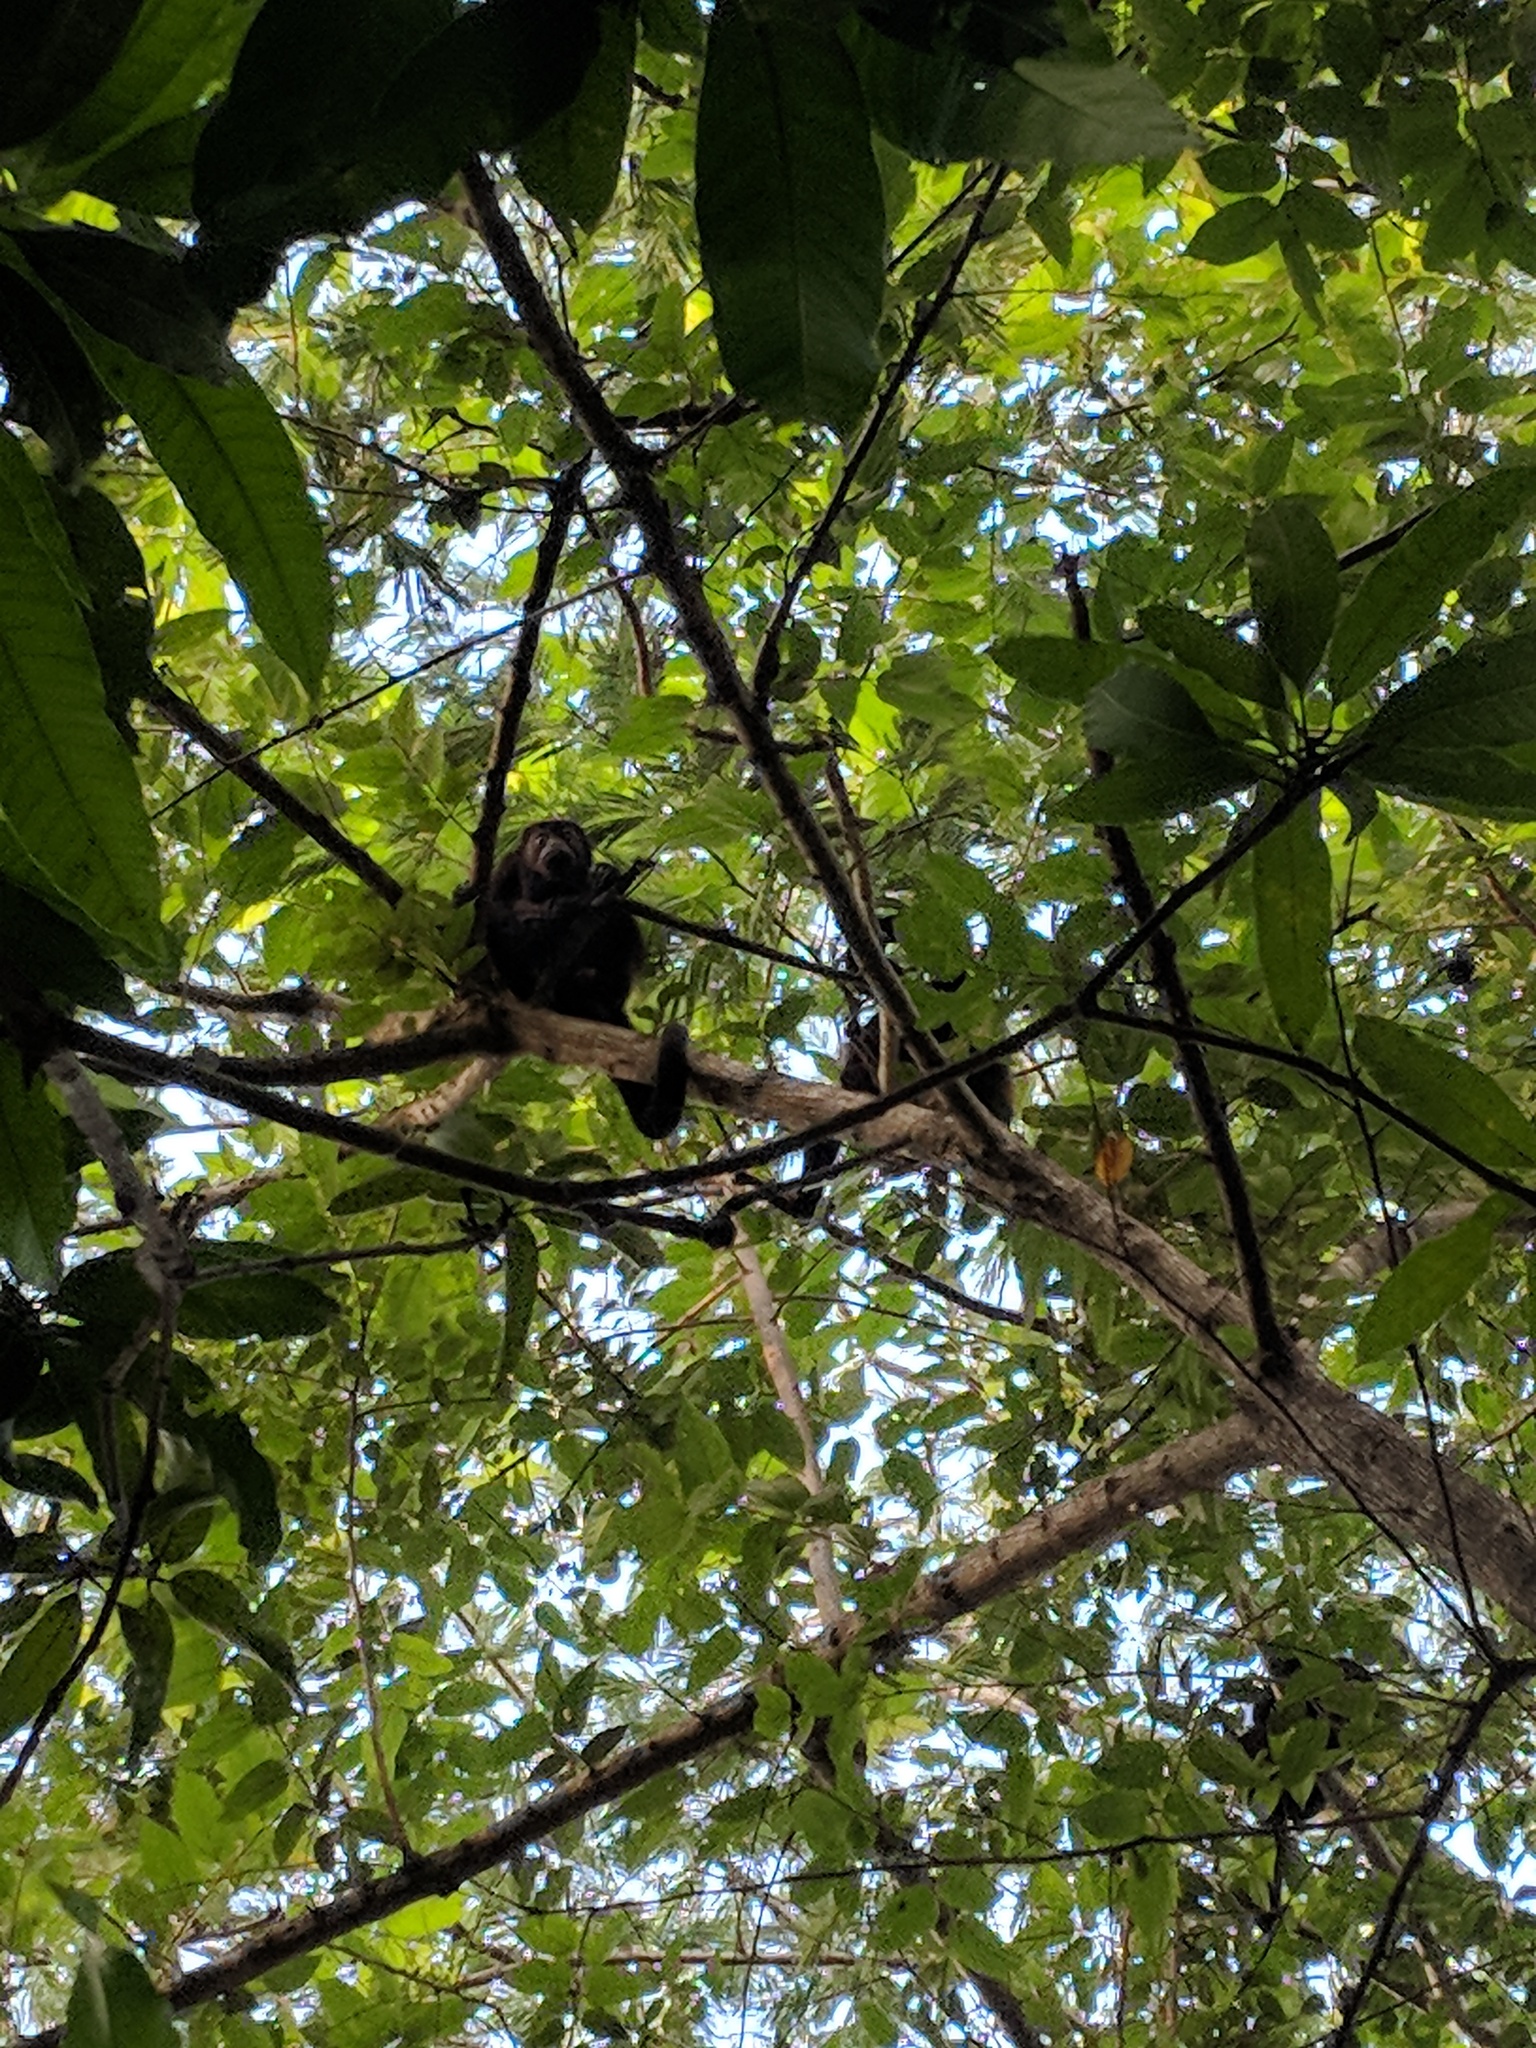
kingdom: Animalia
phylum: Chordata
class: Mammalia
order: Primates
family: Atelidae
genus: Alouatta
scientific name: Alouatta palliata
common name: Mantled howler
